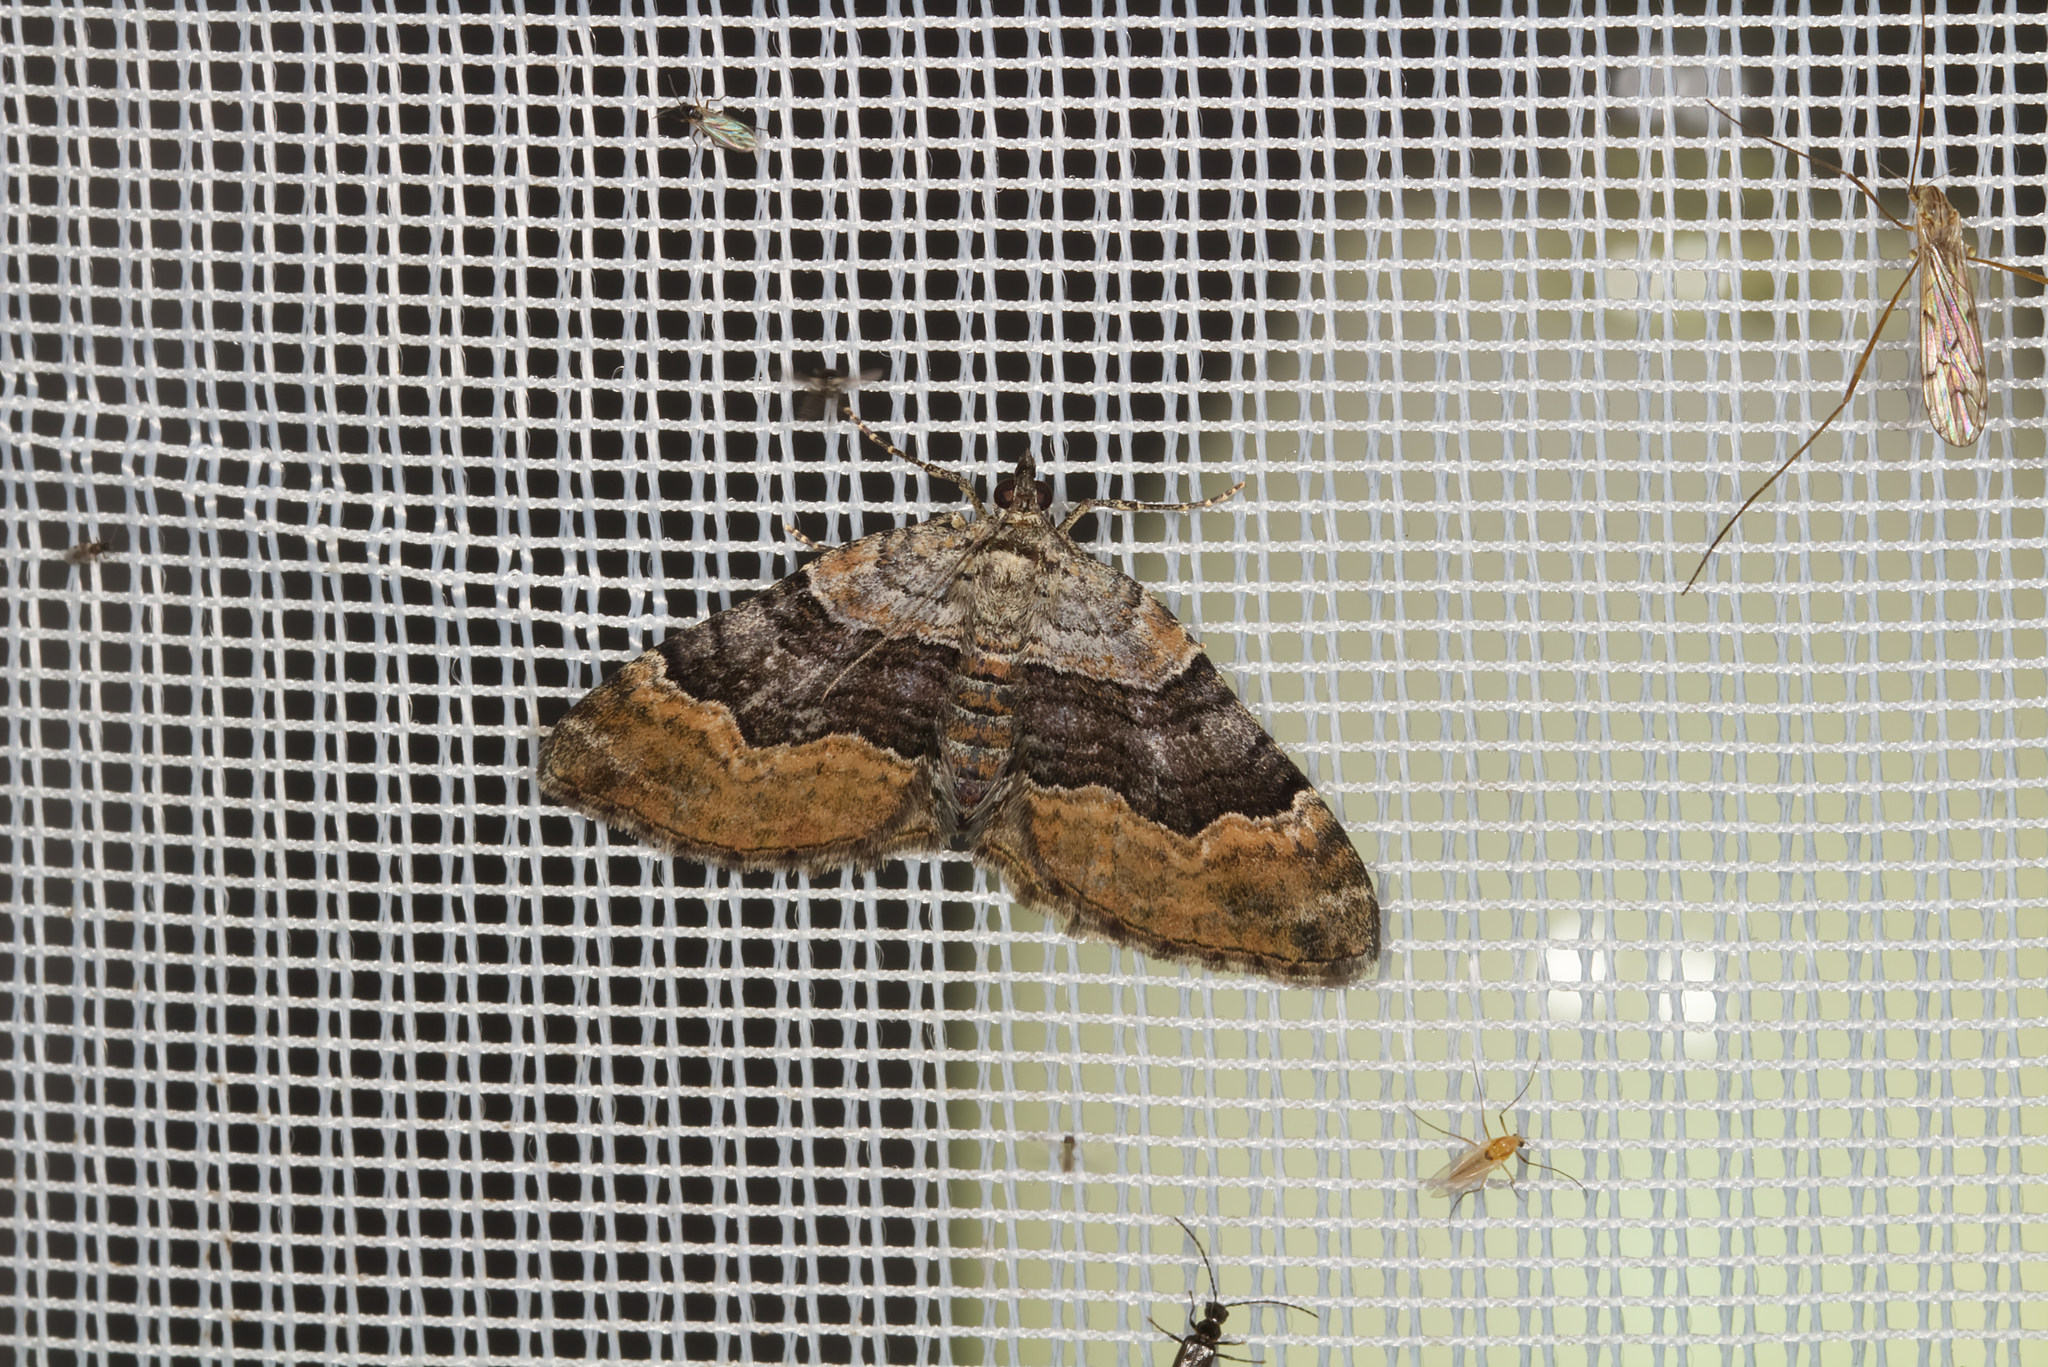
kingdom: Animalia
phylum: Arthropoda
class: Insecta
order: Lepidoptera
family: Geometridae
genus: Xanthorhoe
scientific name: Xanthorhoe quadrifasiata
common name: Large twin-spot carpet
